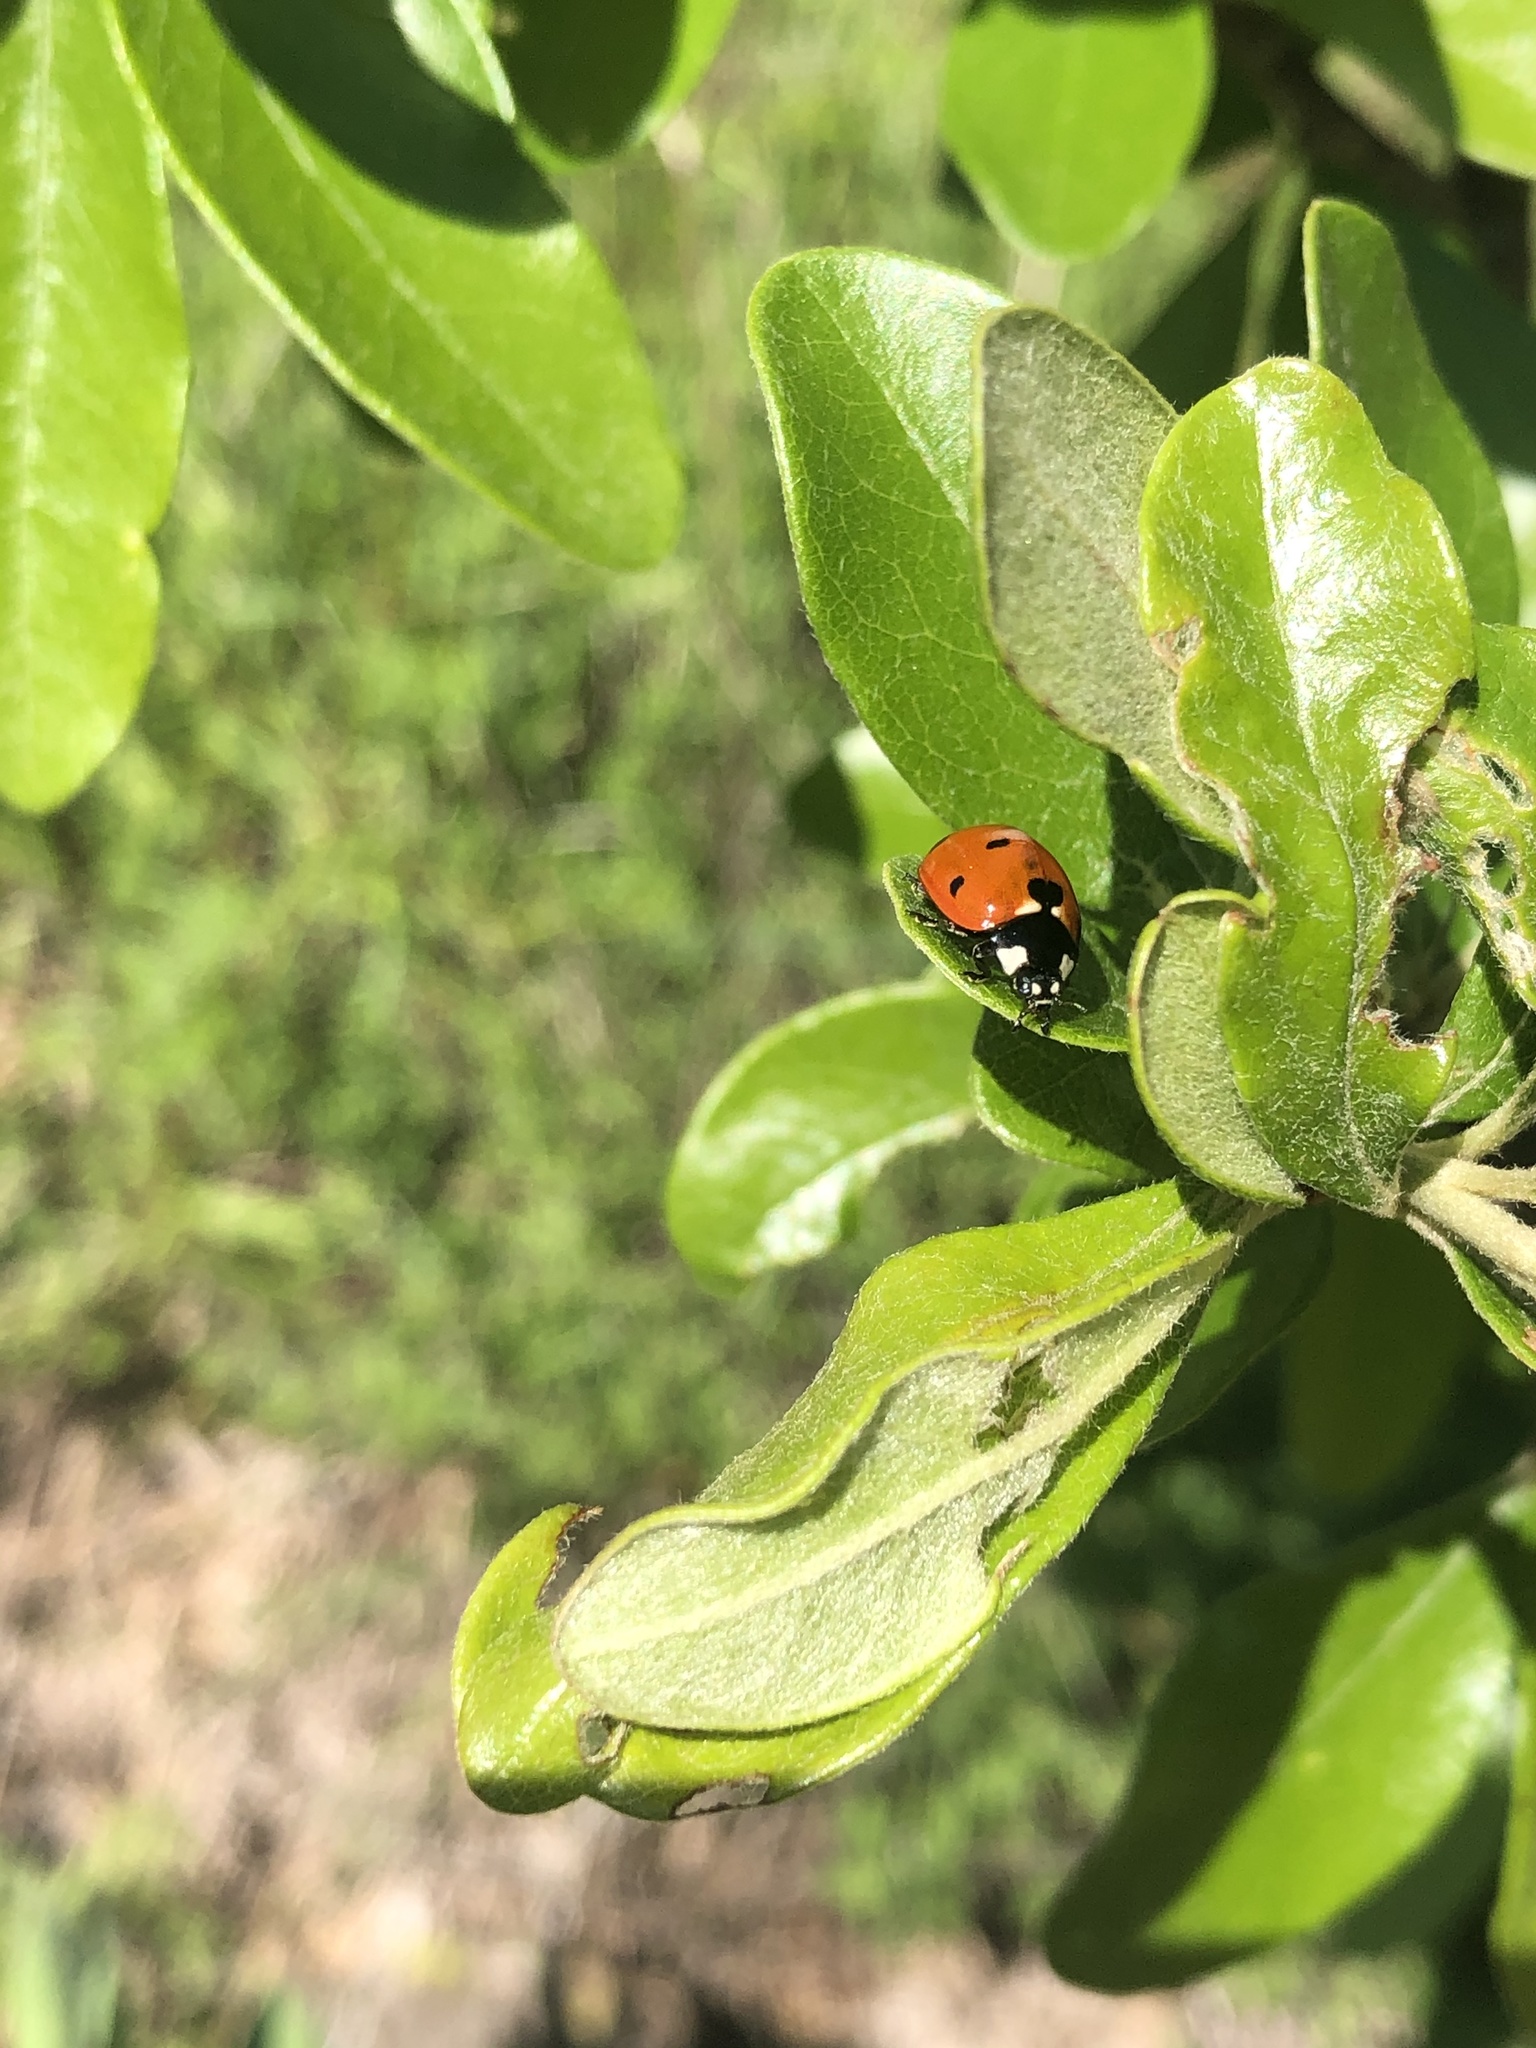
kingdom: Animalia
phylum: Arthropoda
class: Insecta
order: Coleoptera
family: Coccinellidae
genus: Coccinella
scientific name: Coccinella septempunctata
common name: Sevenspotted lady beetle
